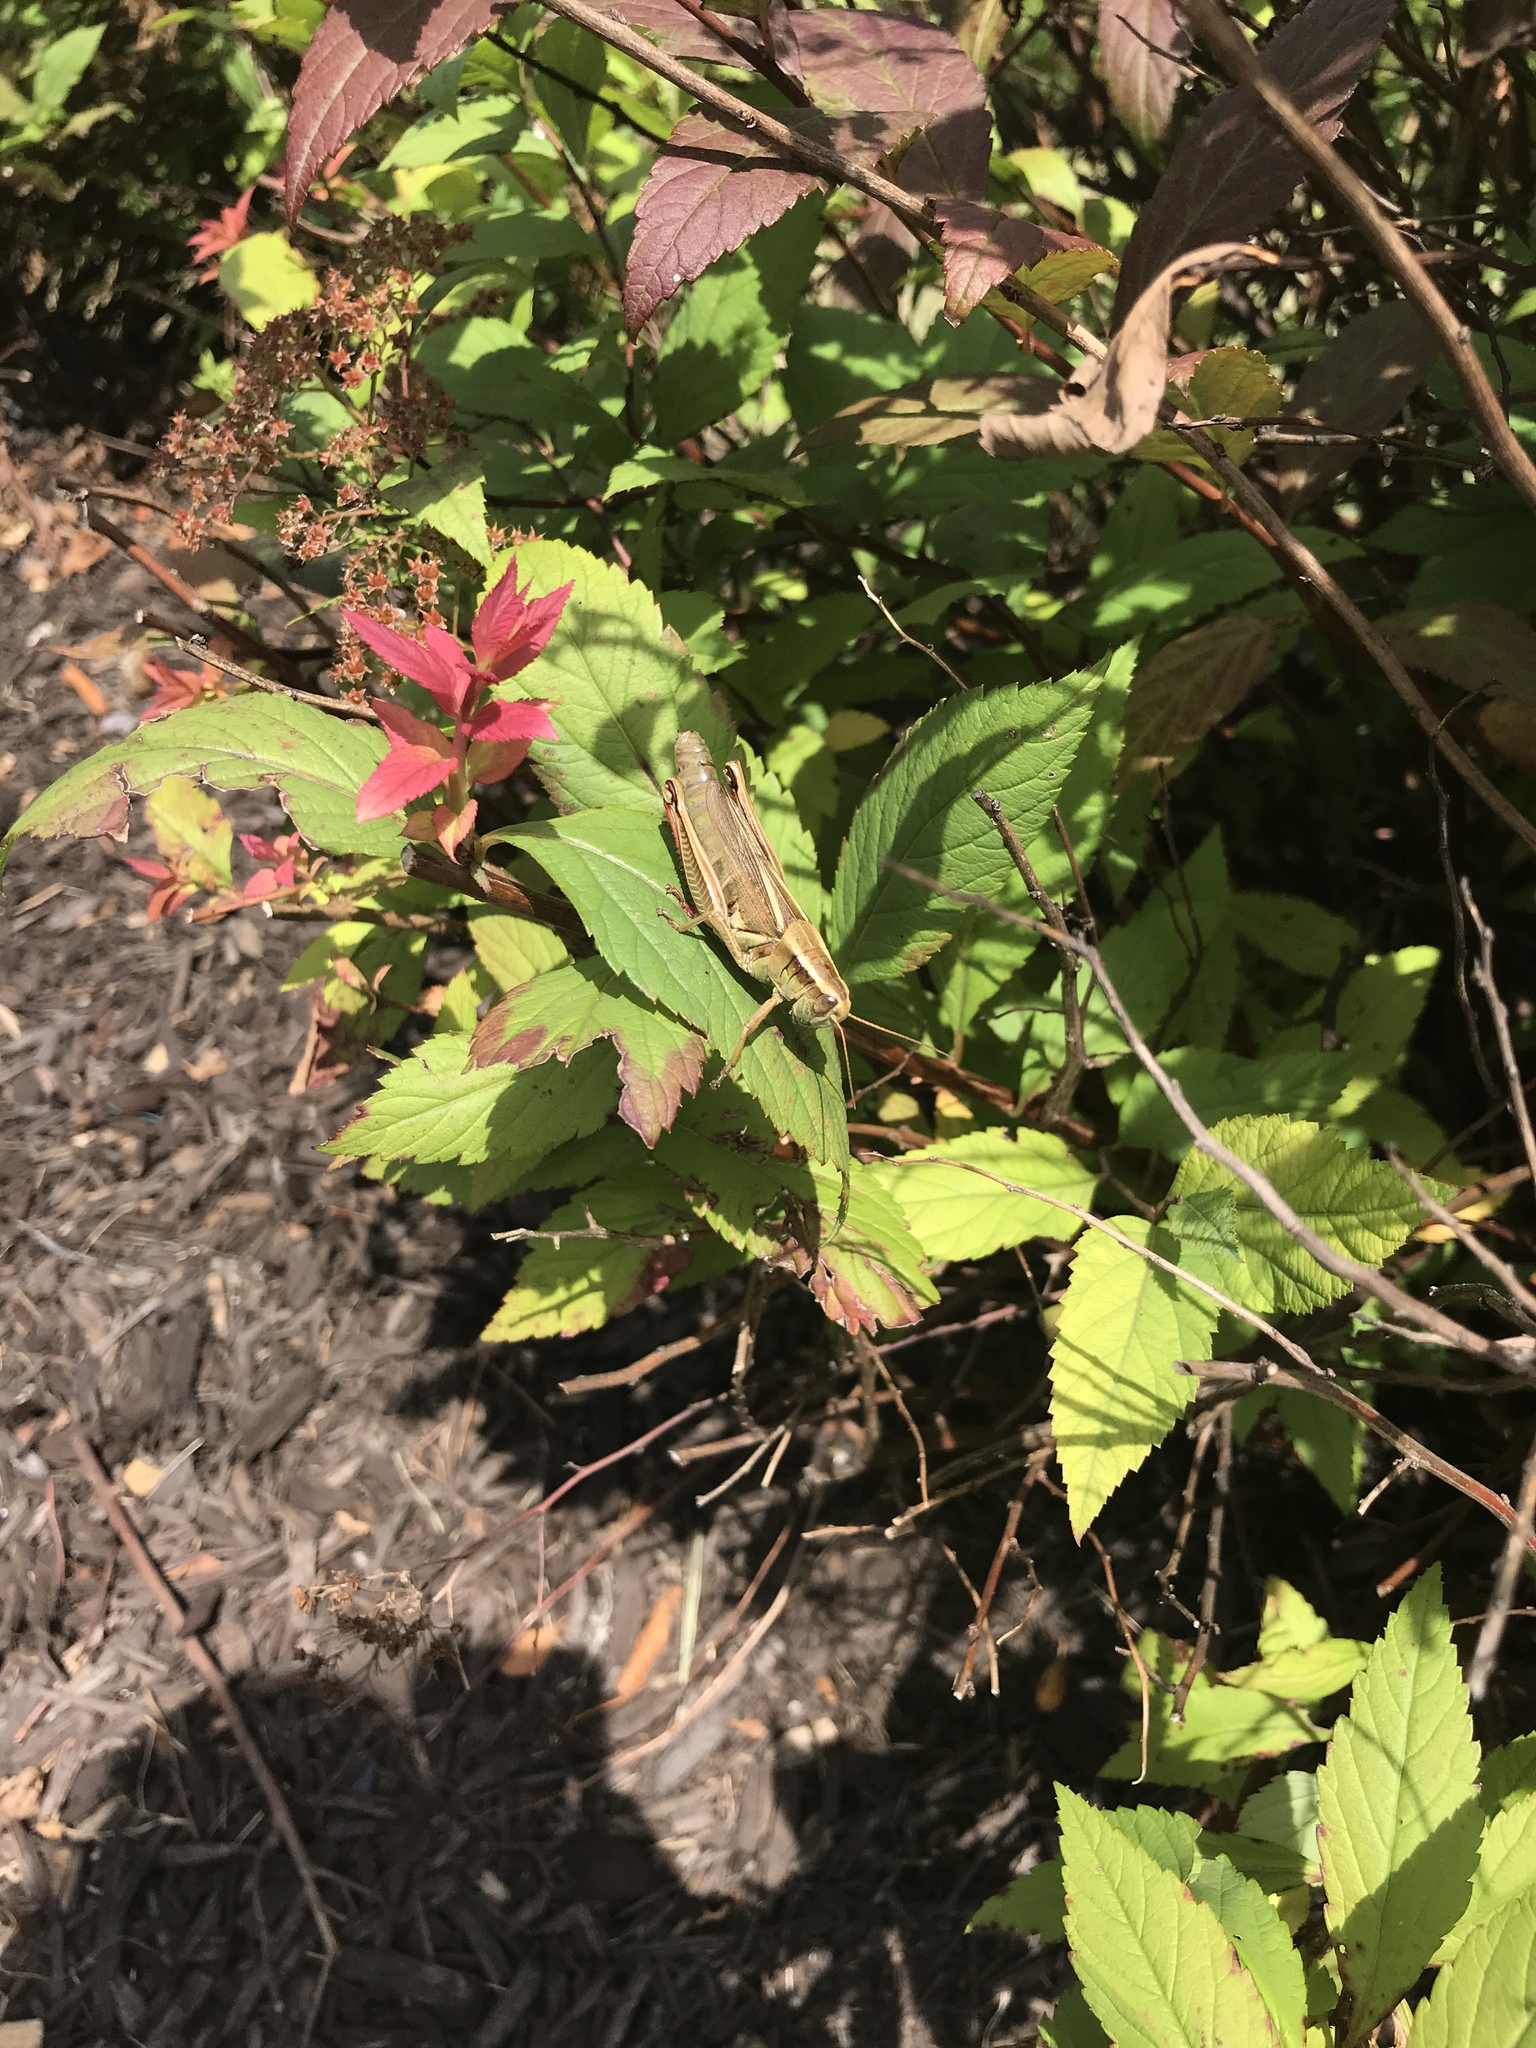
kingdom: Animalia
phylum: Arthropoda
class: Insecta
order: Orthoptera
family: Acrididae
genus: Melanoplus
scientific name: Melanoplus bivittatus
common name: Two-striped grasshopper
